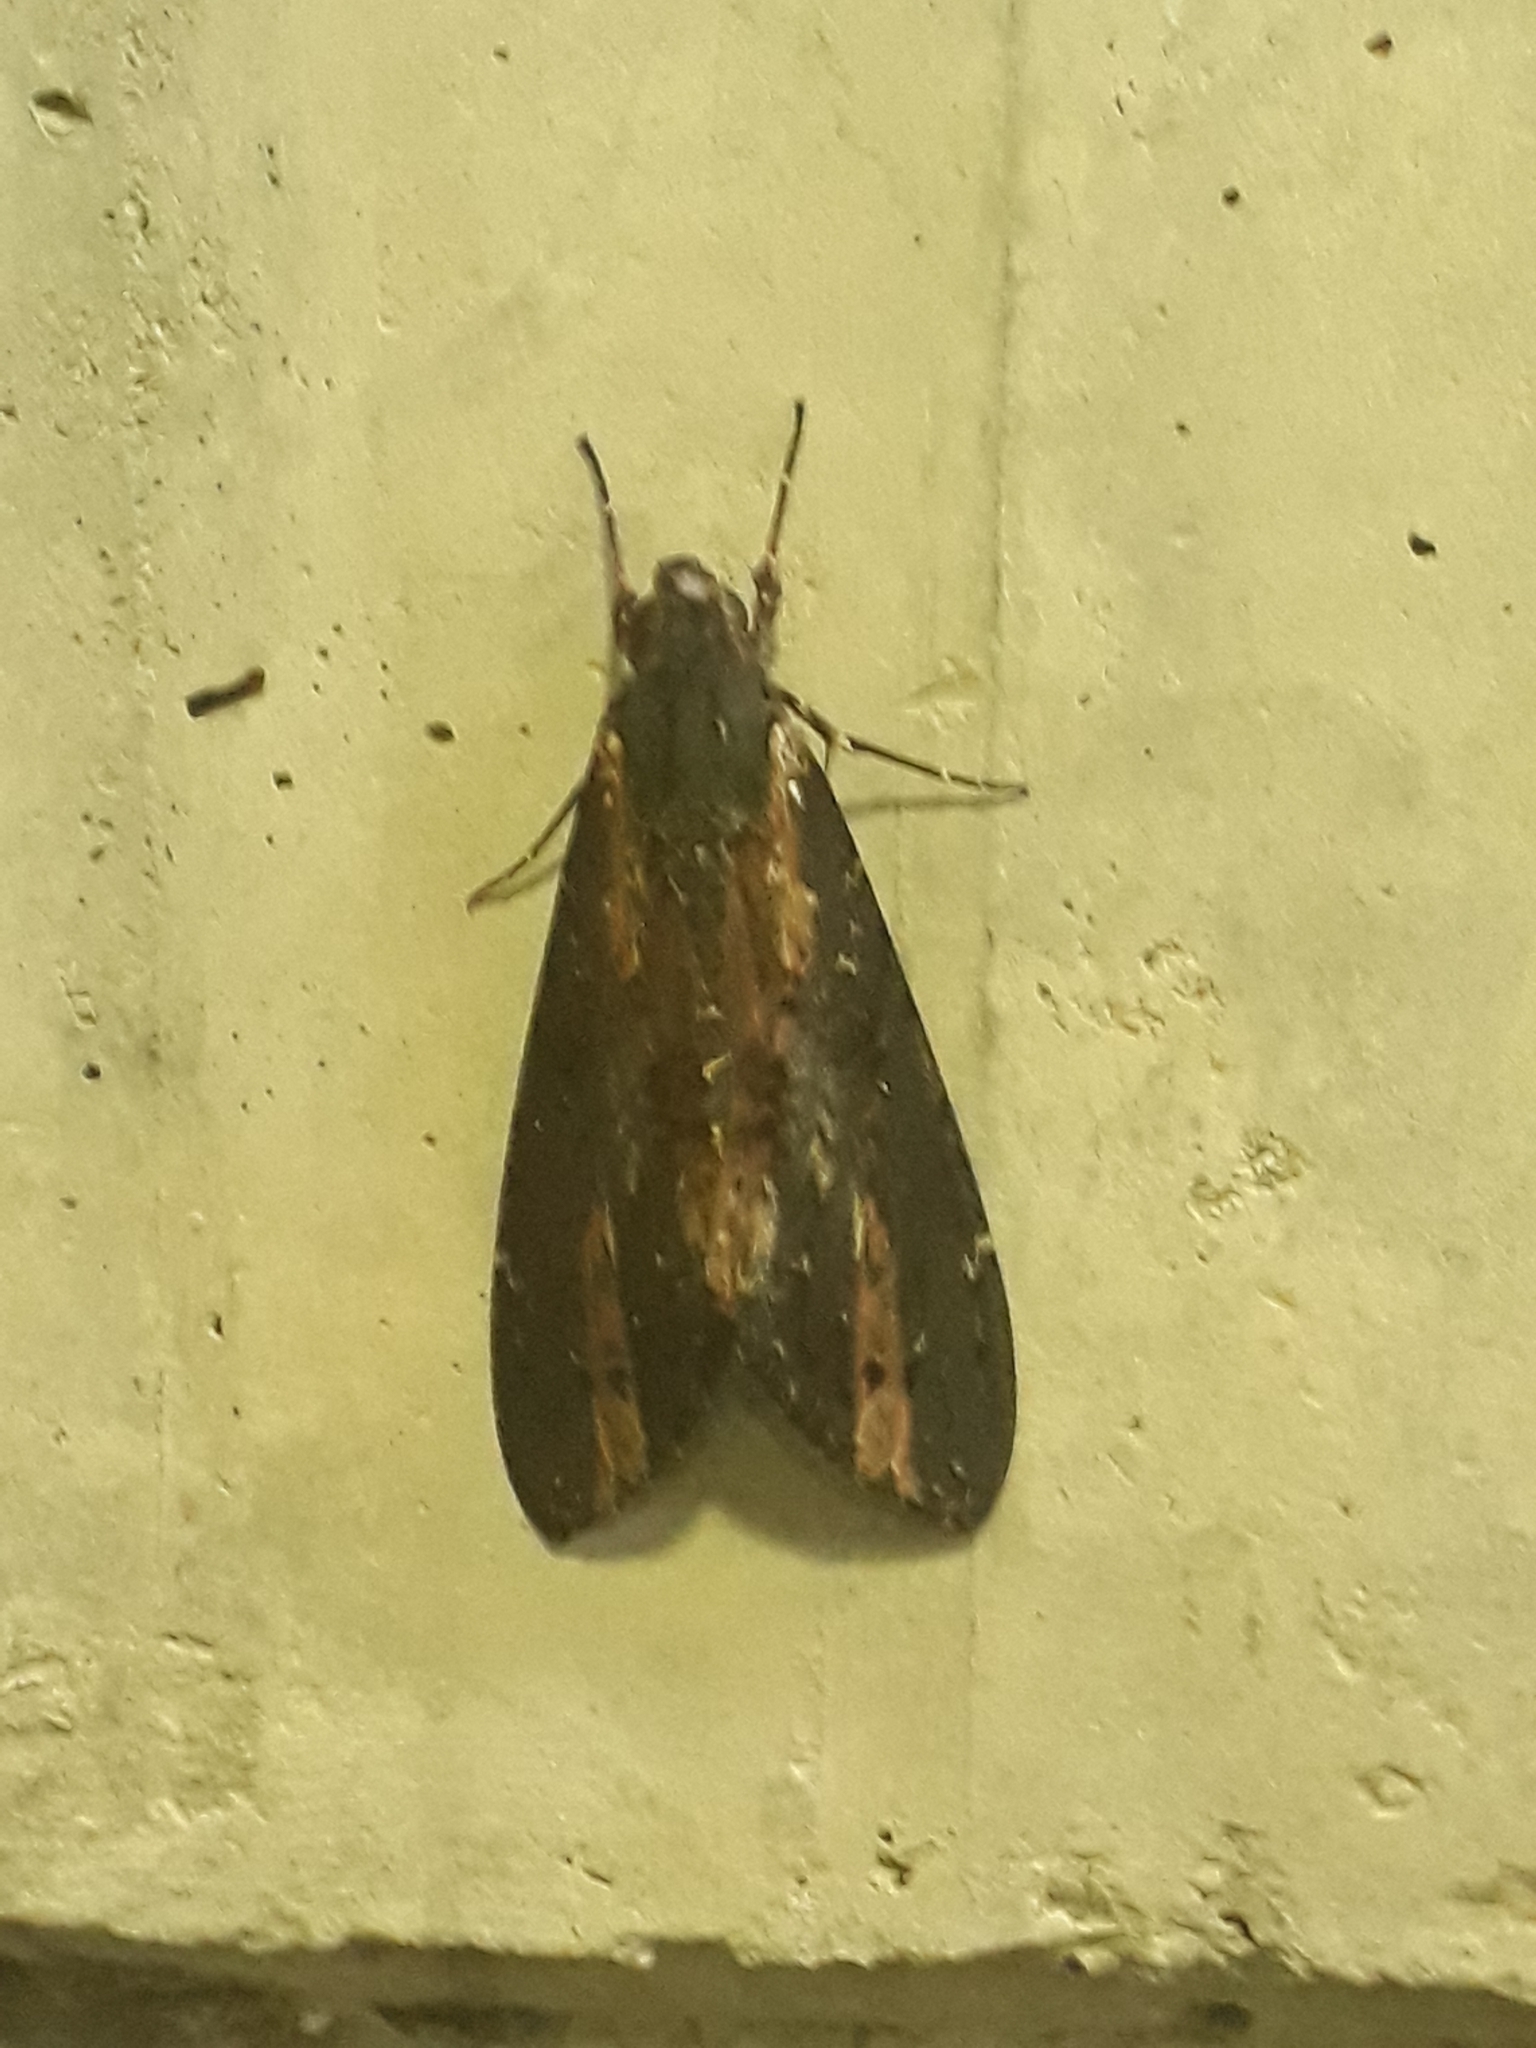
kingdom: Animalia
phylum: Arthropoda
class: Insecta
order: Lepidoptera
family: Sphingidae
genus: Neococytius
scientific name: Neococytius cluentius
